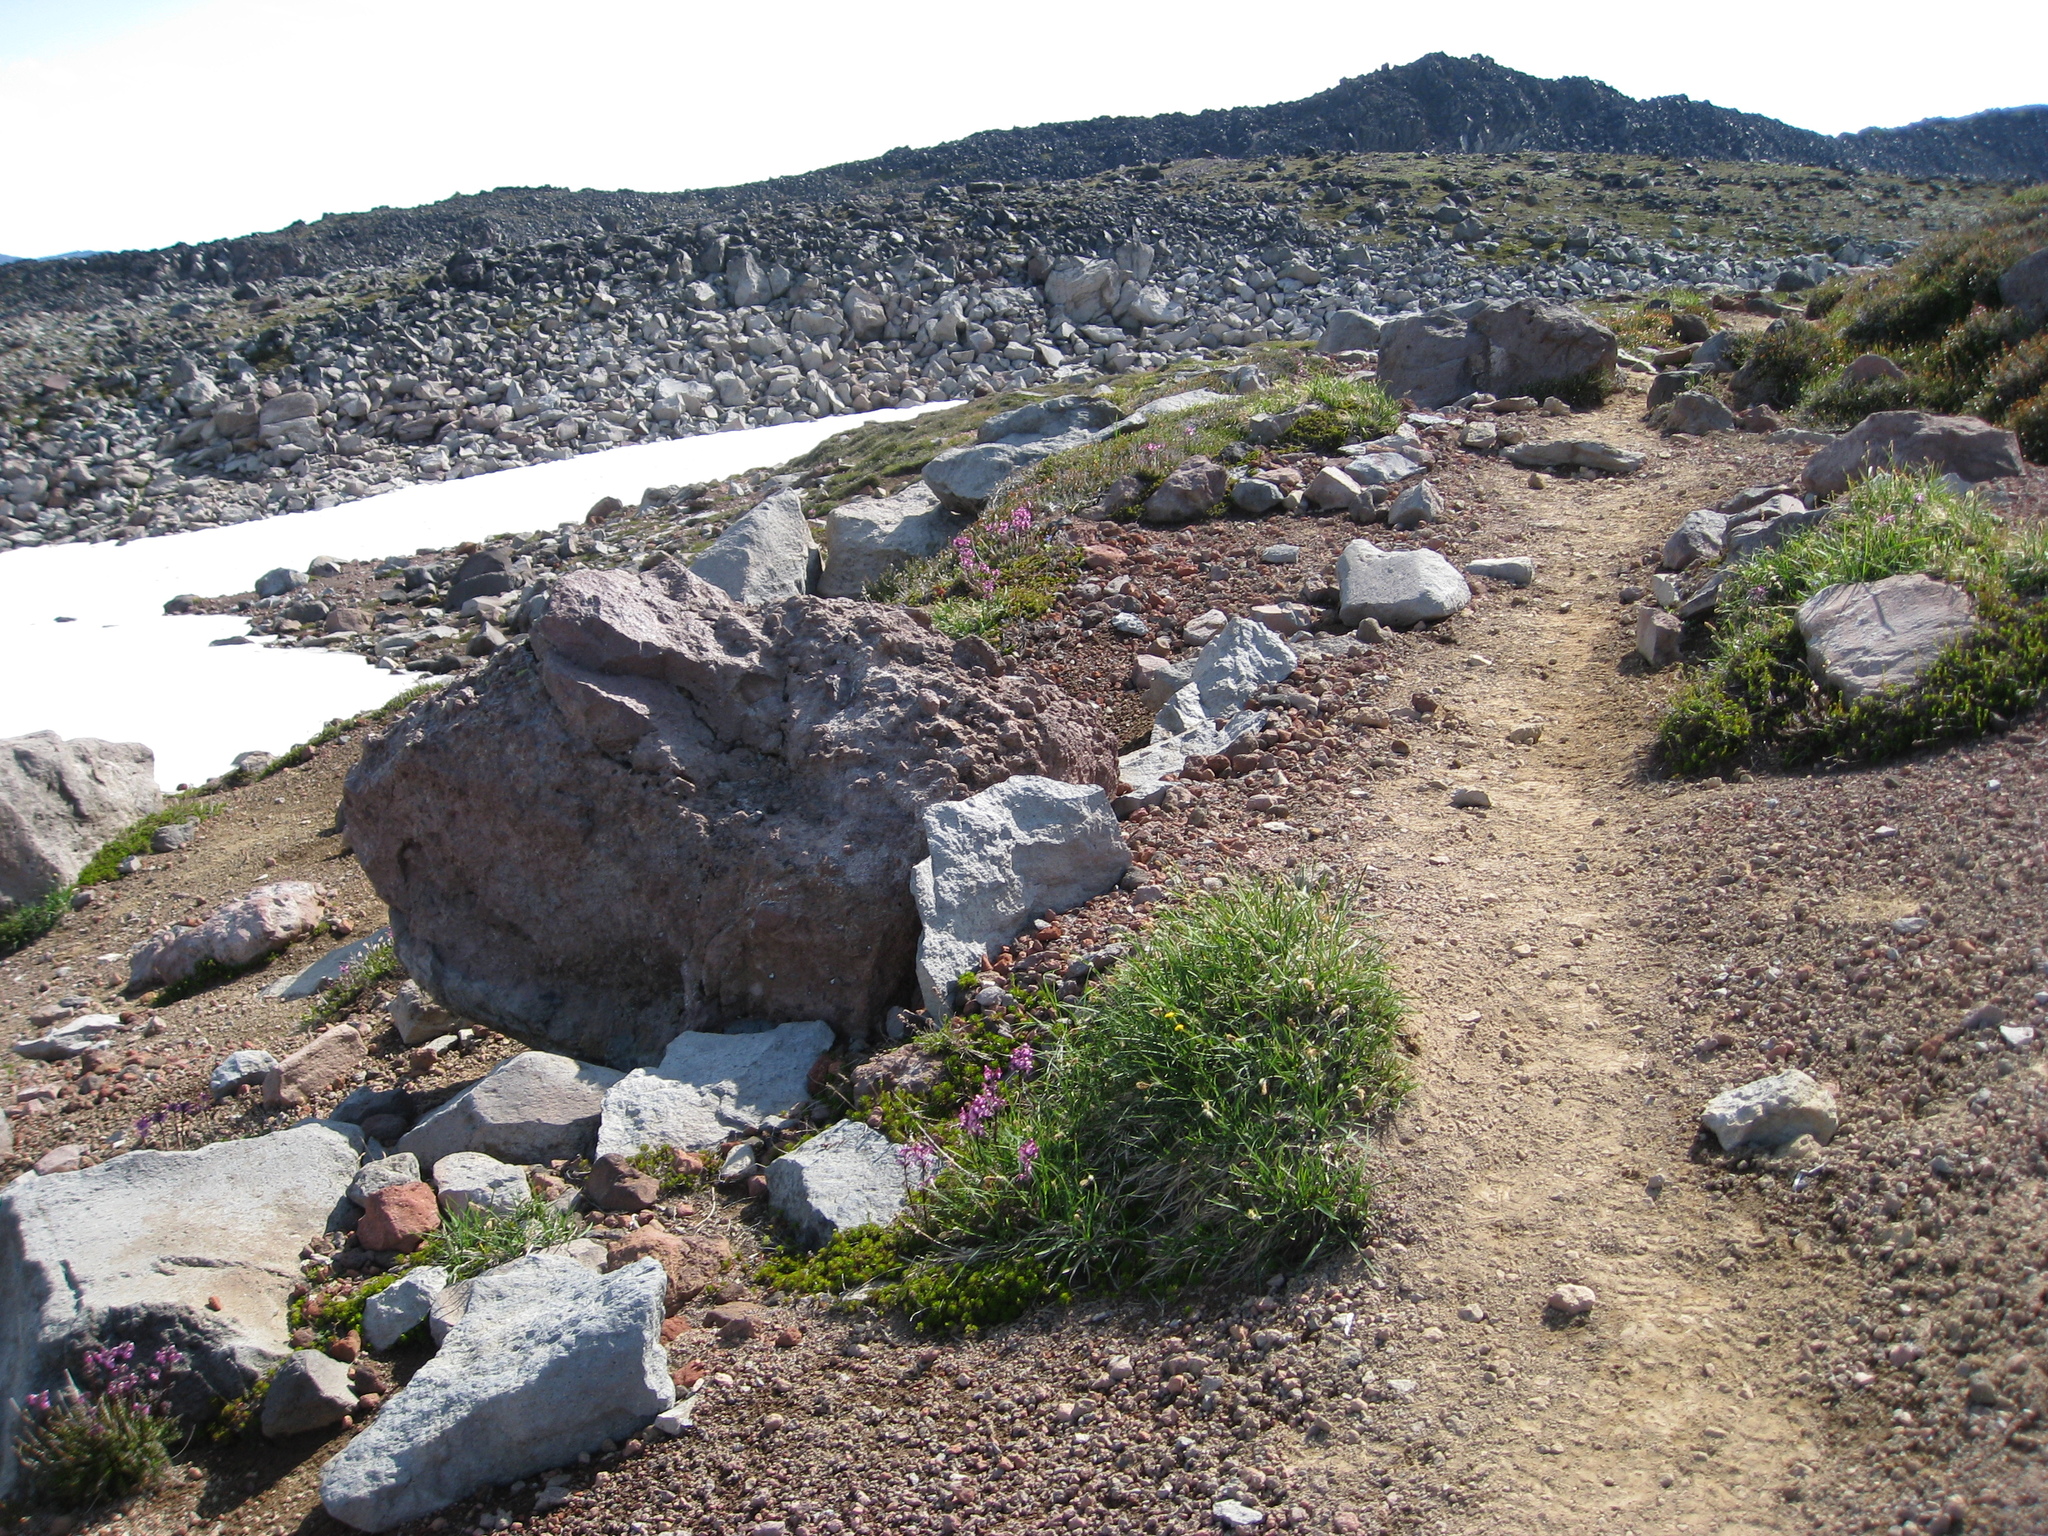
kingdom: Plantae
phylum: Tracheophyta
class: Magnoliopsida
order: Lamiales
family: Orobanchaceae
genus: Pedicularis
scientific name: Pedicularis ornithorhynchos
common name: Bird's-beak lousewort
